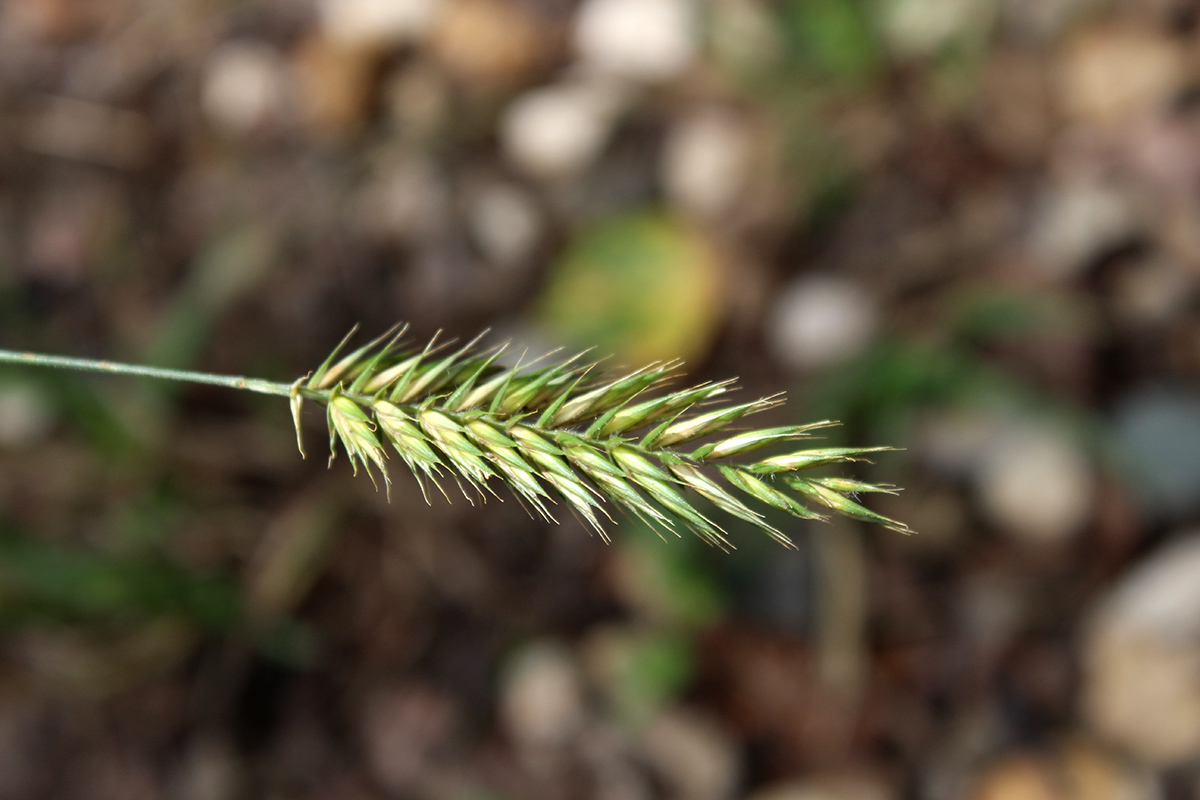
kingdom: Plantae
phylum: Tracheophyta
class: Liliopsida
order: Poales
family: Poaceae
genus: Agropyron
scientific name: Agropyron cristatum
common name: Crested wheatgrass
